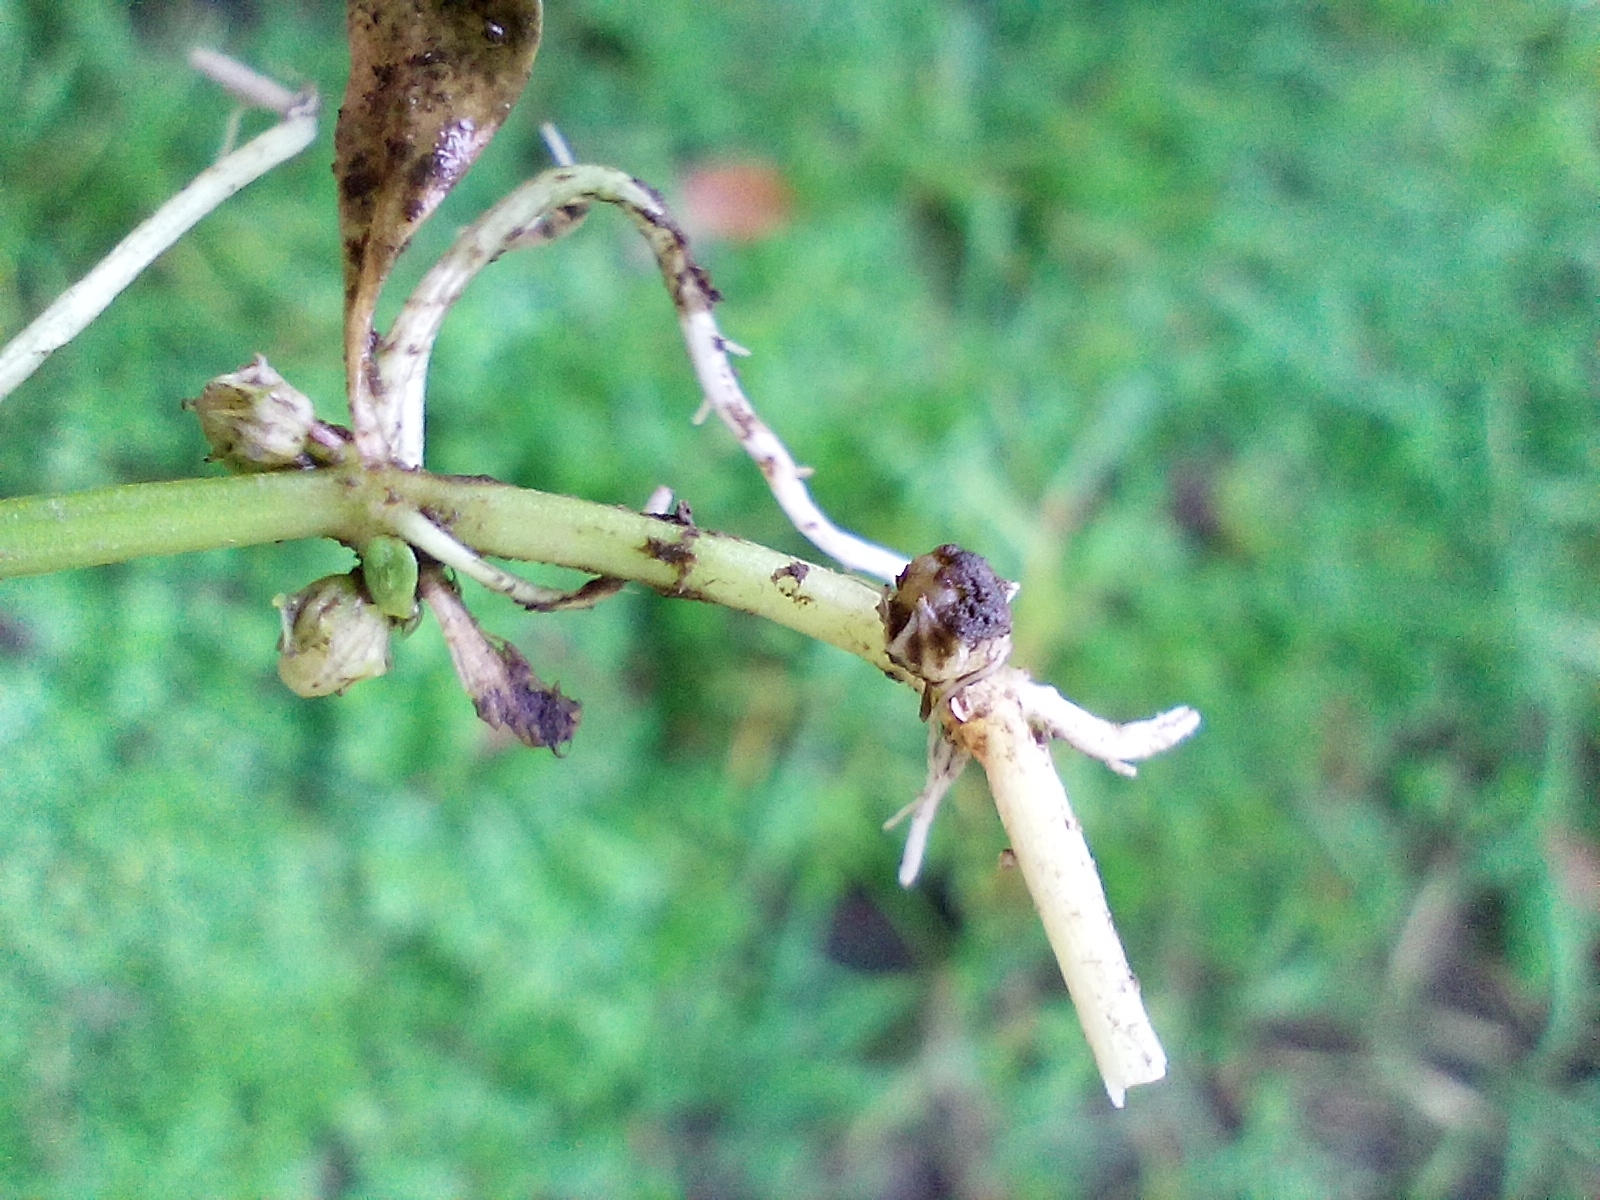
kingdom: Plantae
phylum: Tracheophyta
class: Magnoliopsida
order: Myrtales
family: Lythraceae
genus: Lythrum
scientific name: Lythrum portula
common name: Water purslane
